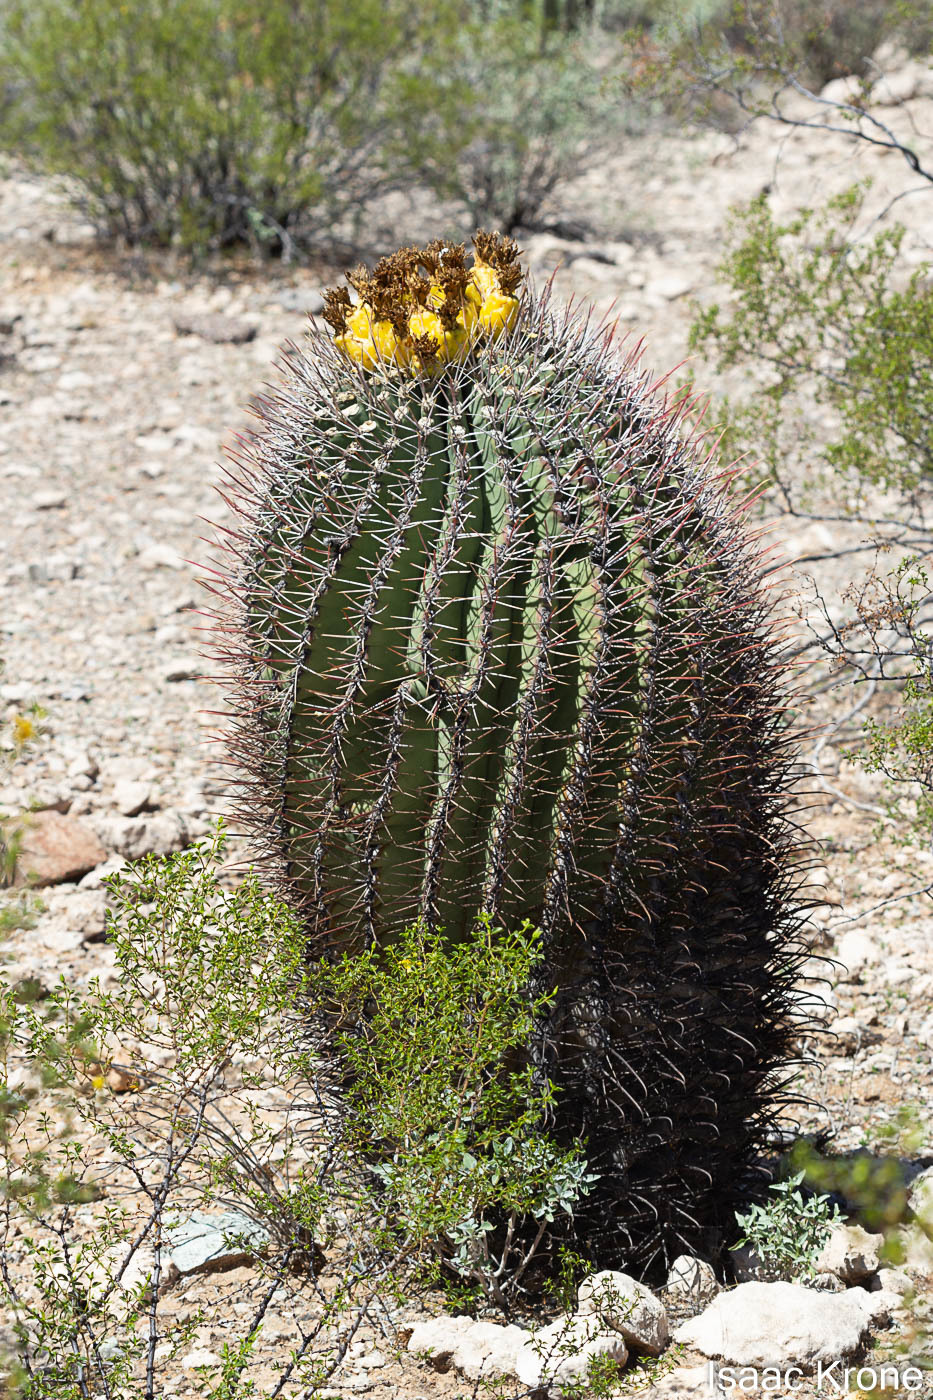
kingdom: Plantae
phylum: Tracheophyta
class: Magnoliopsida
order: Caryophyllales
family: Cactaceae
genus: Ferocactus
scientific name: Ferocactus emoryi
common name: Emory's barrel cactus
